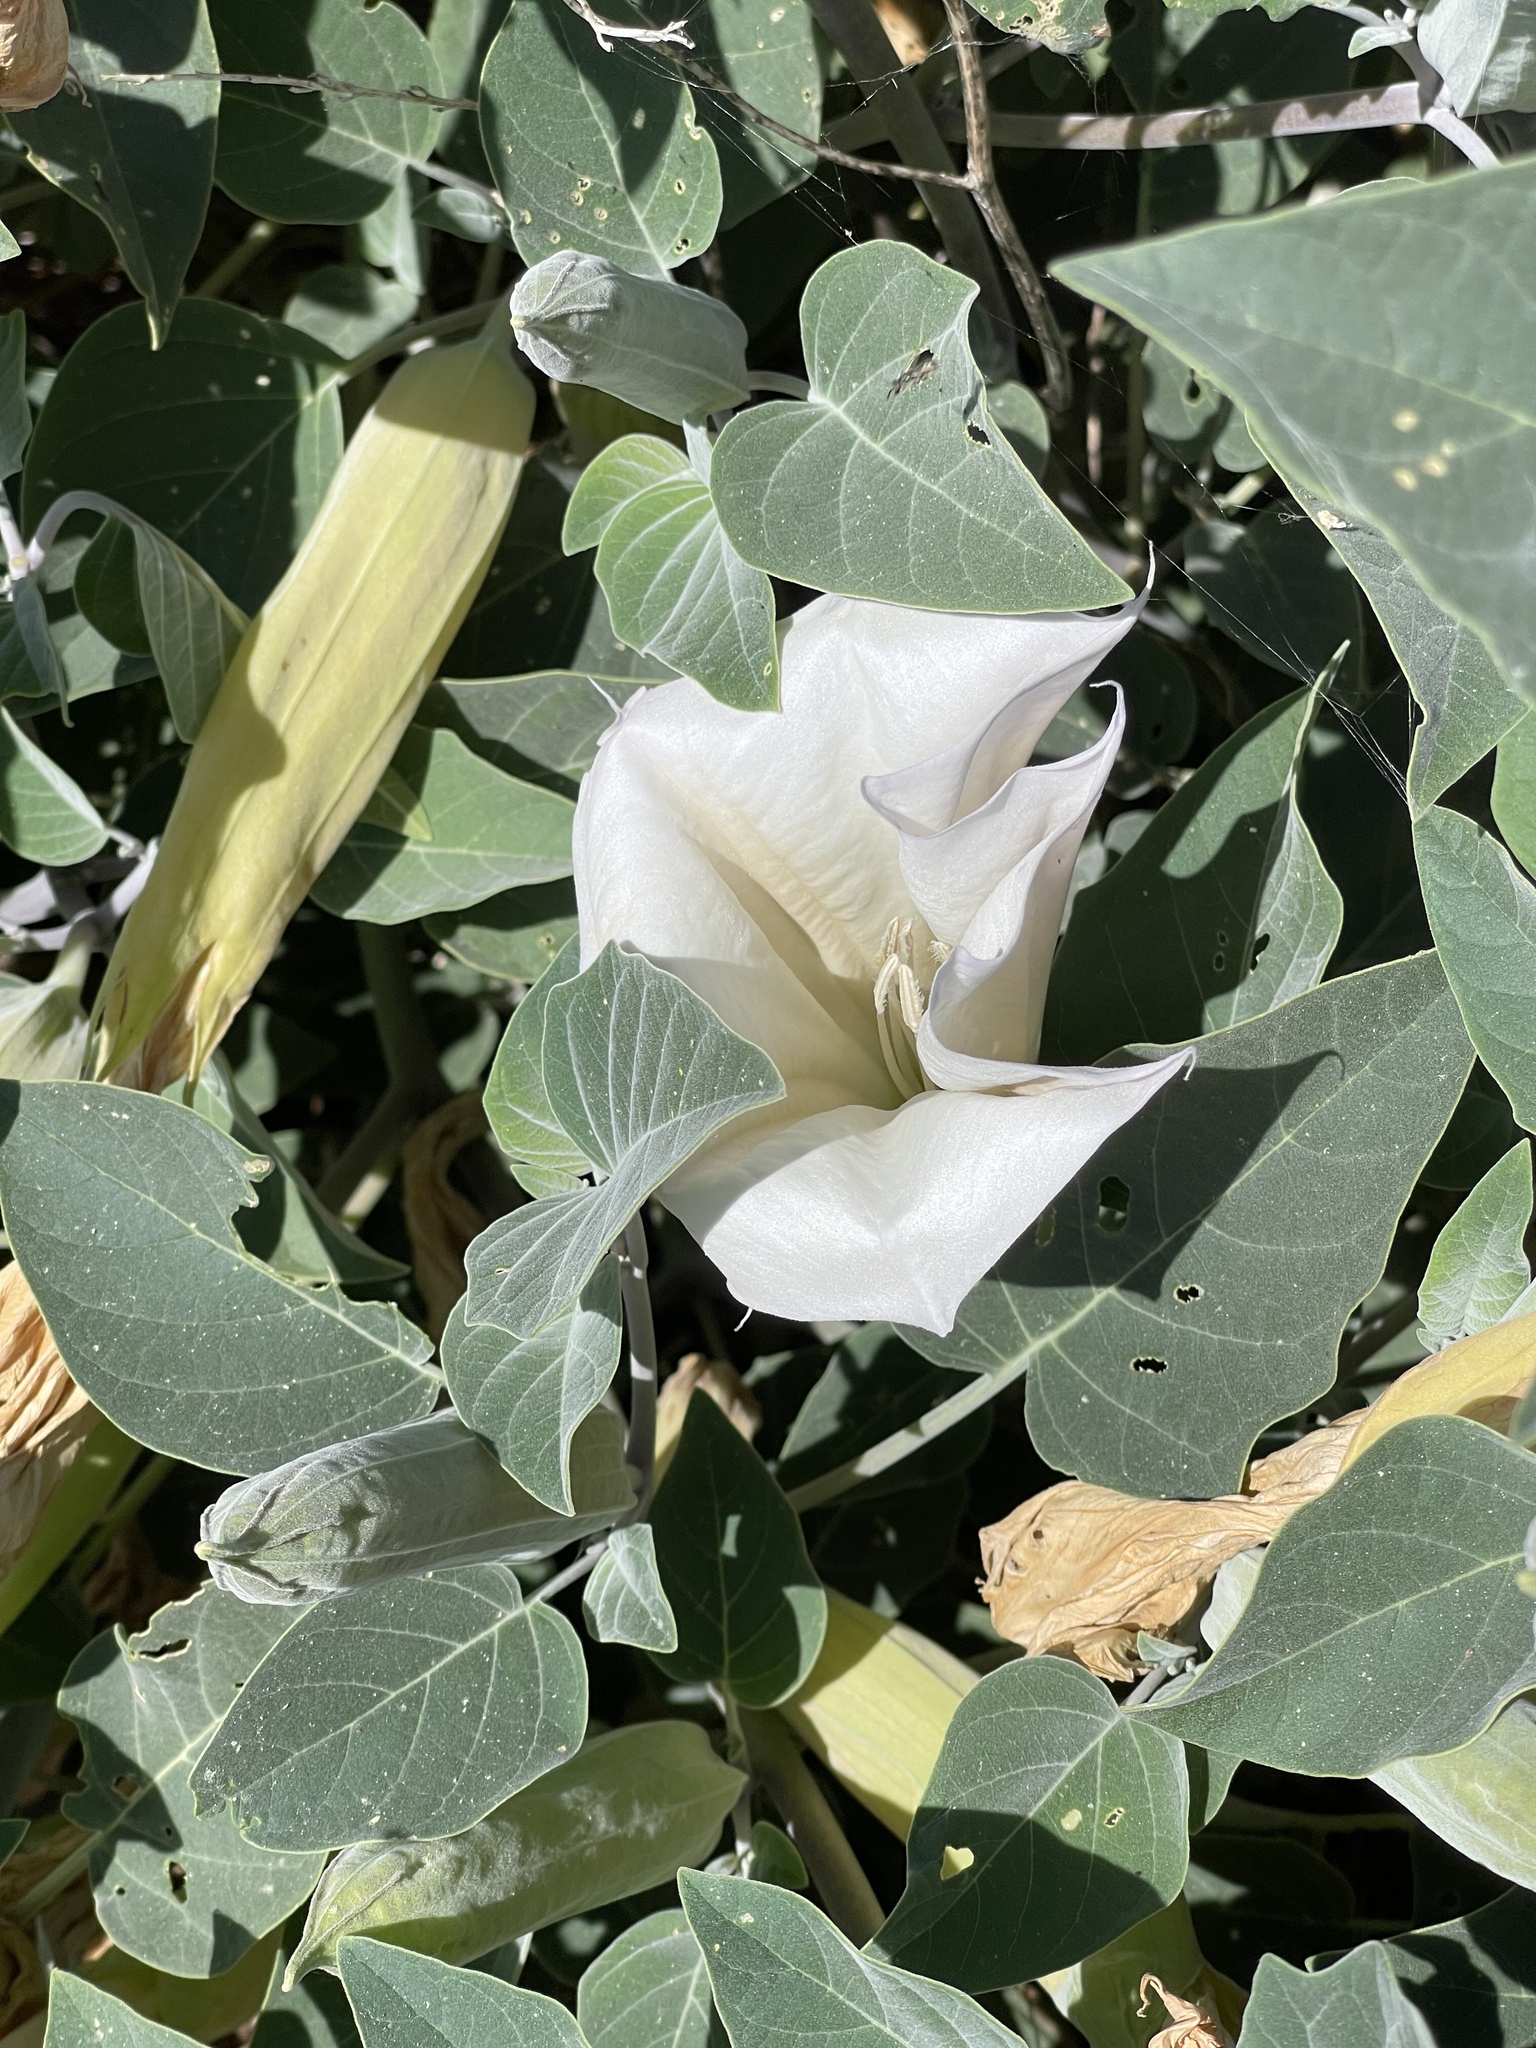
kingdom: Plantae
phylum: Tracheophyta
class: Magnoliopsida
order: Solanales
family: Solanaceae
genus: Datura
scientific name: Datura wrightii
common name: Sacred thorn-apple
